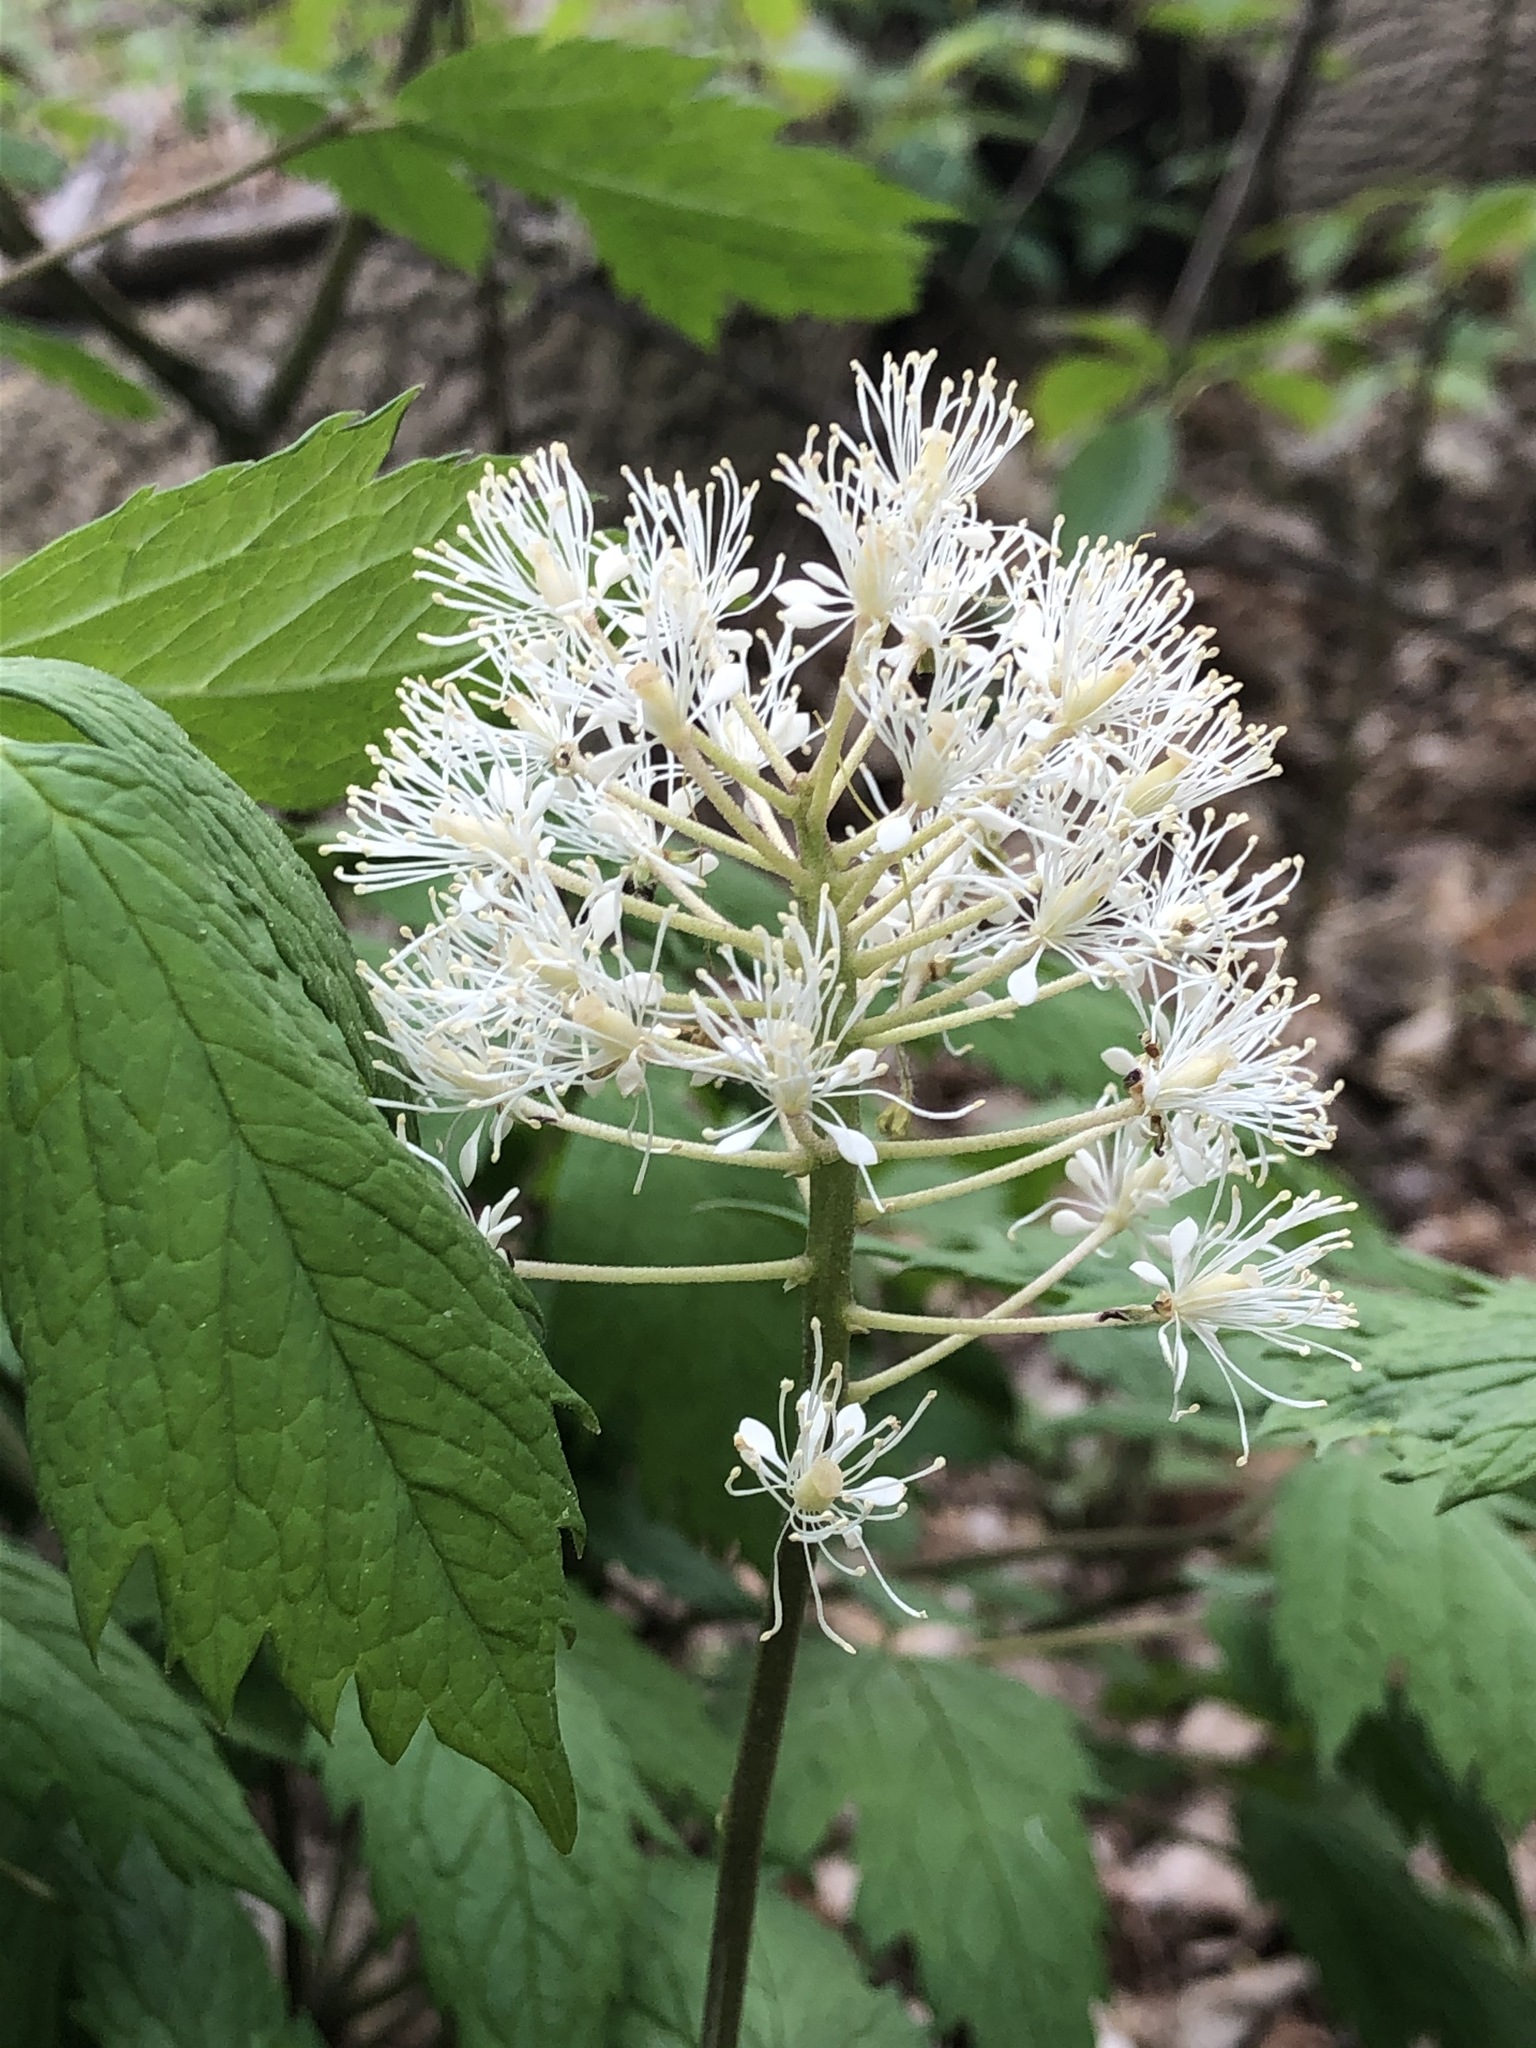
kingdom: Plantae
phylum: Tracheophyta
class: Magnoliopsida
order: Ranunculales
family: Ranunculaceae
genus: Actaea
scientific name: Actaea rubra
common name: Red baneberry
